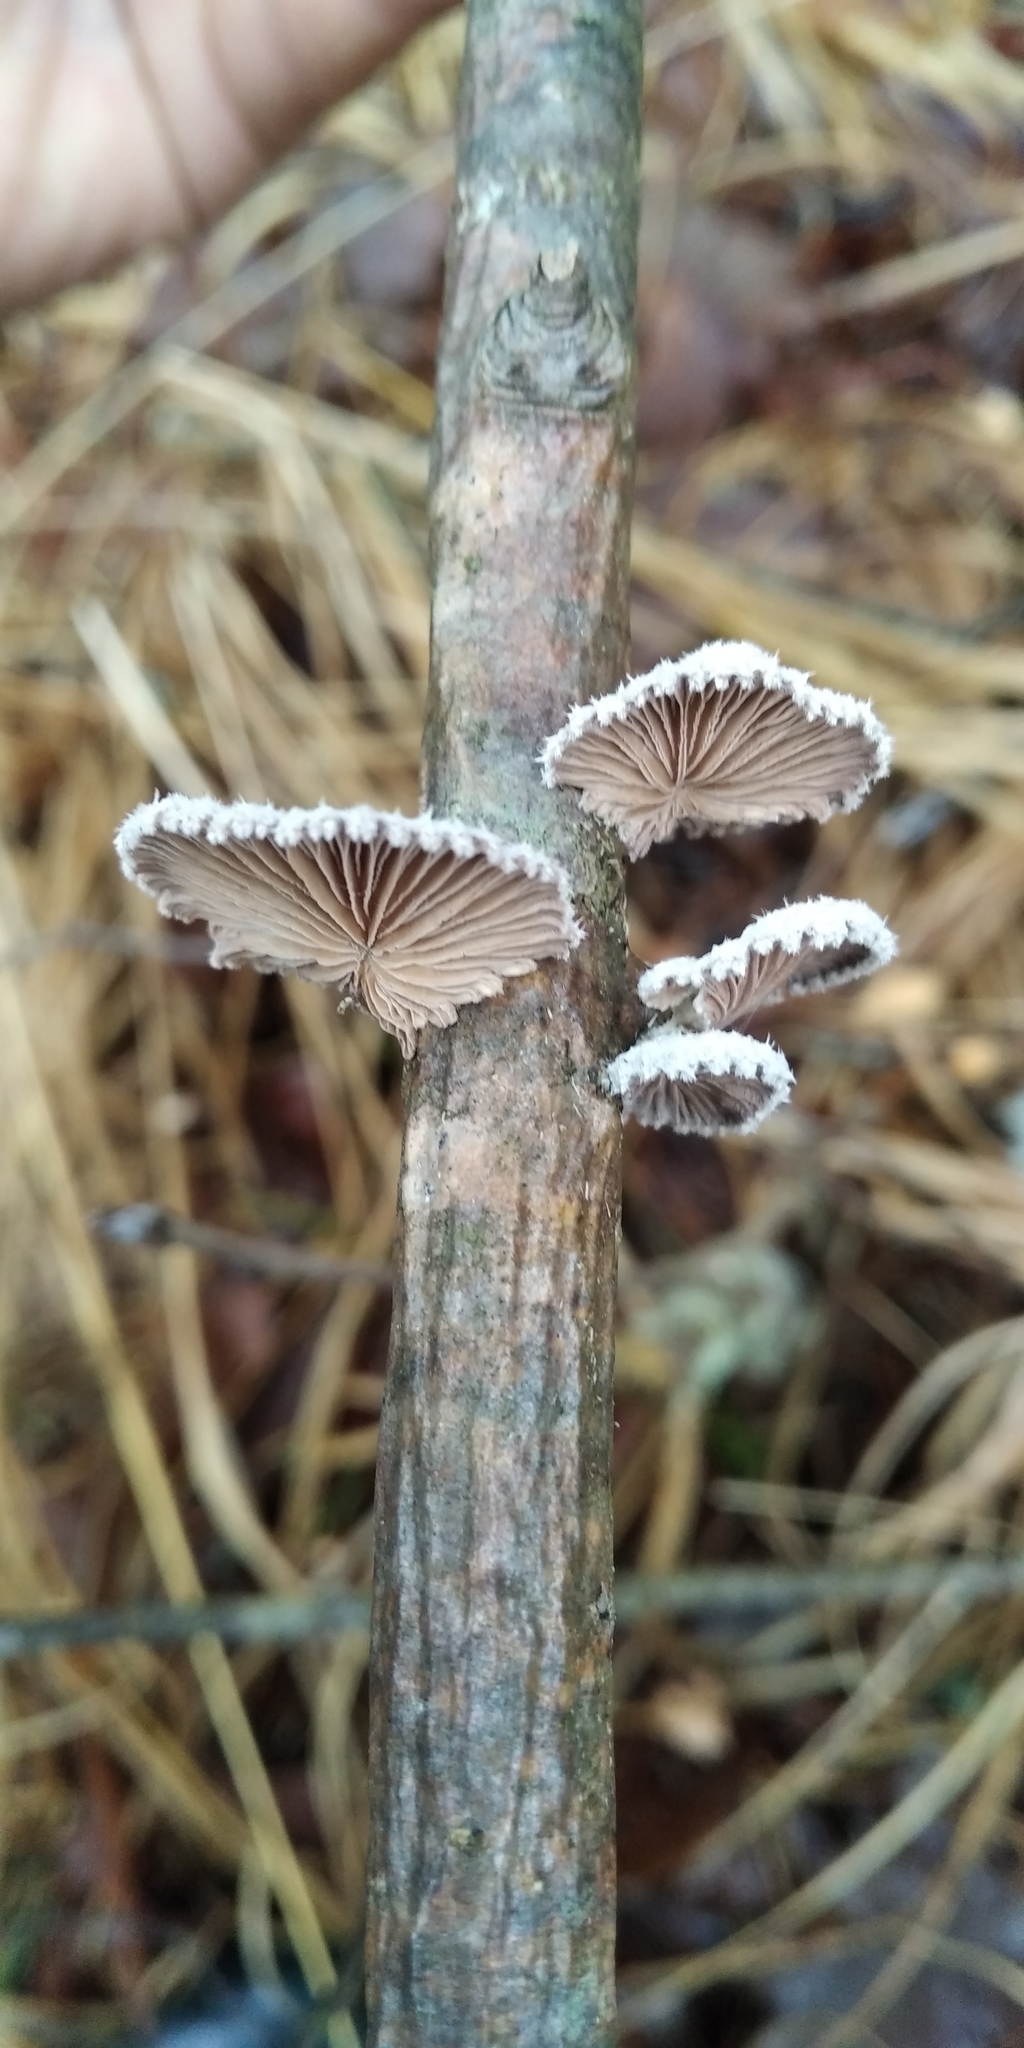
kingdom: Fungi
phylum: Basidiomycota
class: Agaricomycetes
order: Agaricales
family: Schizophyllaceae
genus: Schizophyllum
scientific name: Schizophyllum commune
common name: Common porecrust
